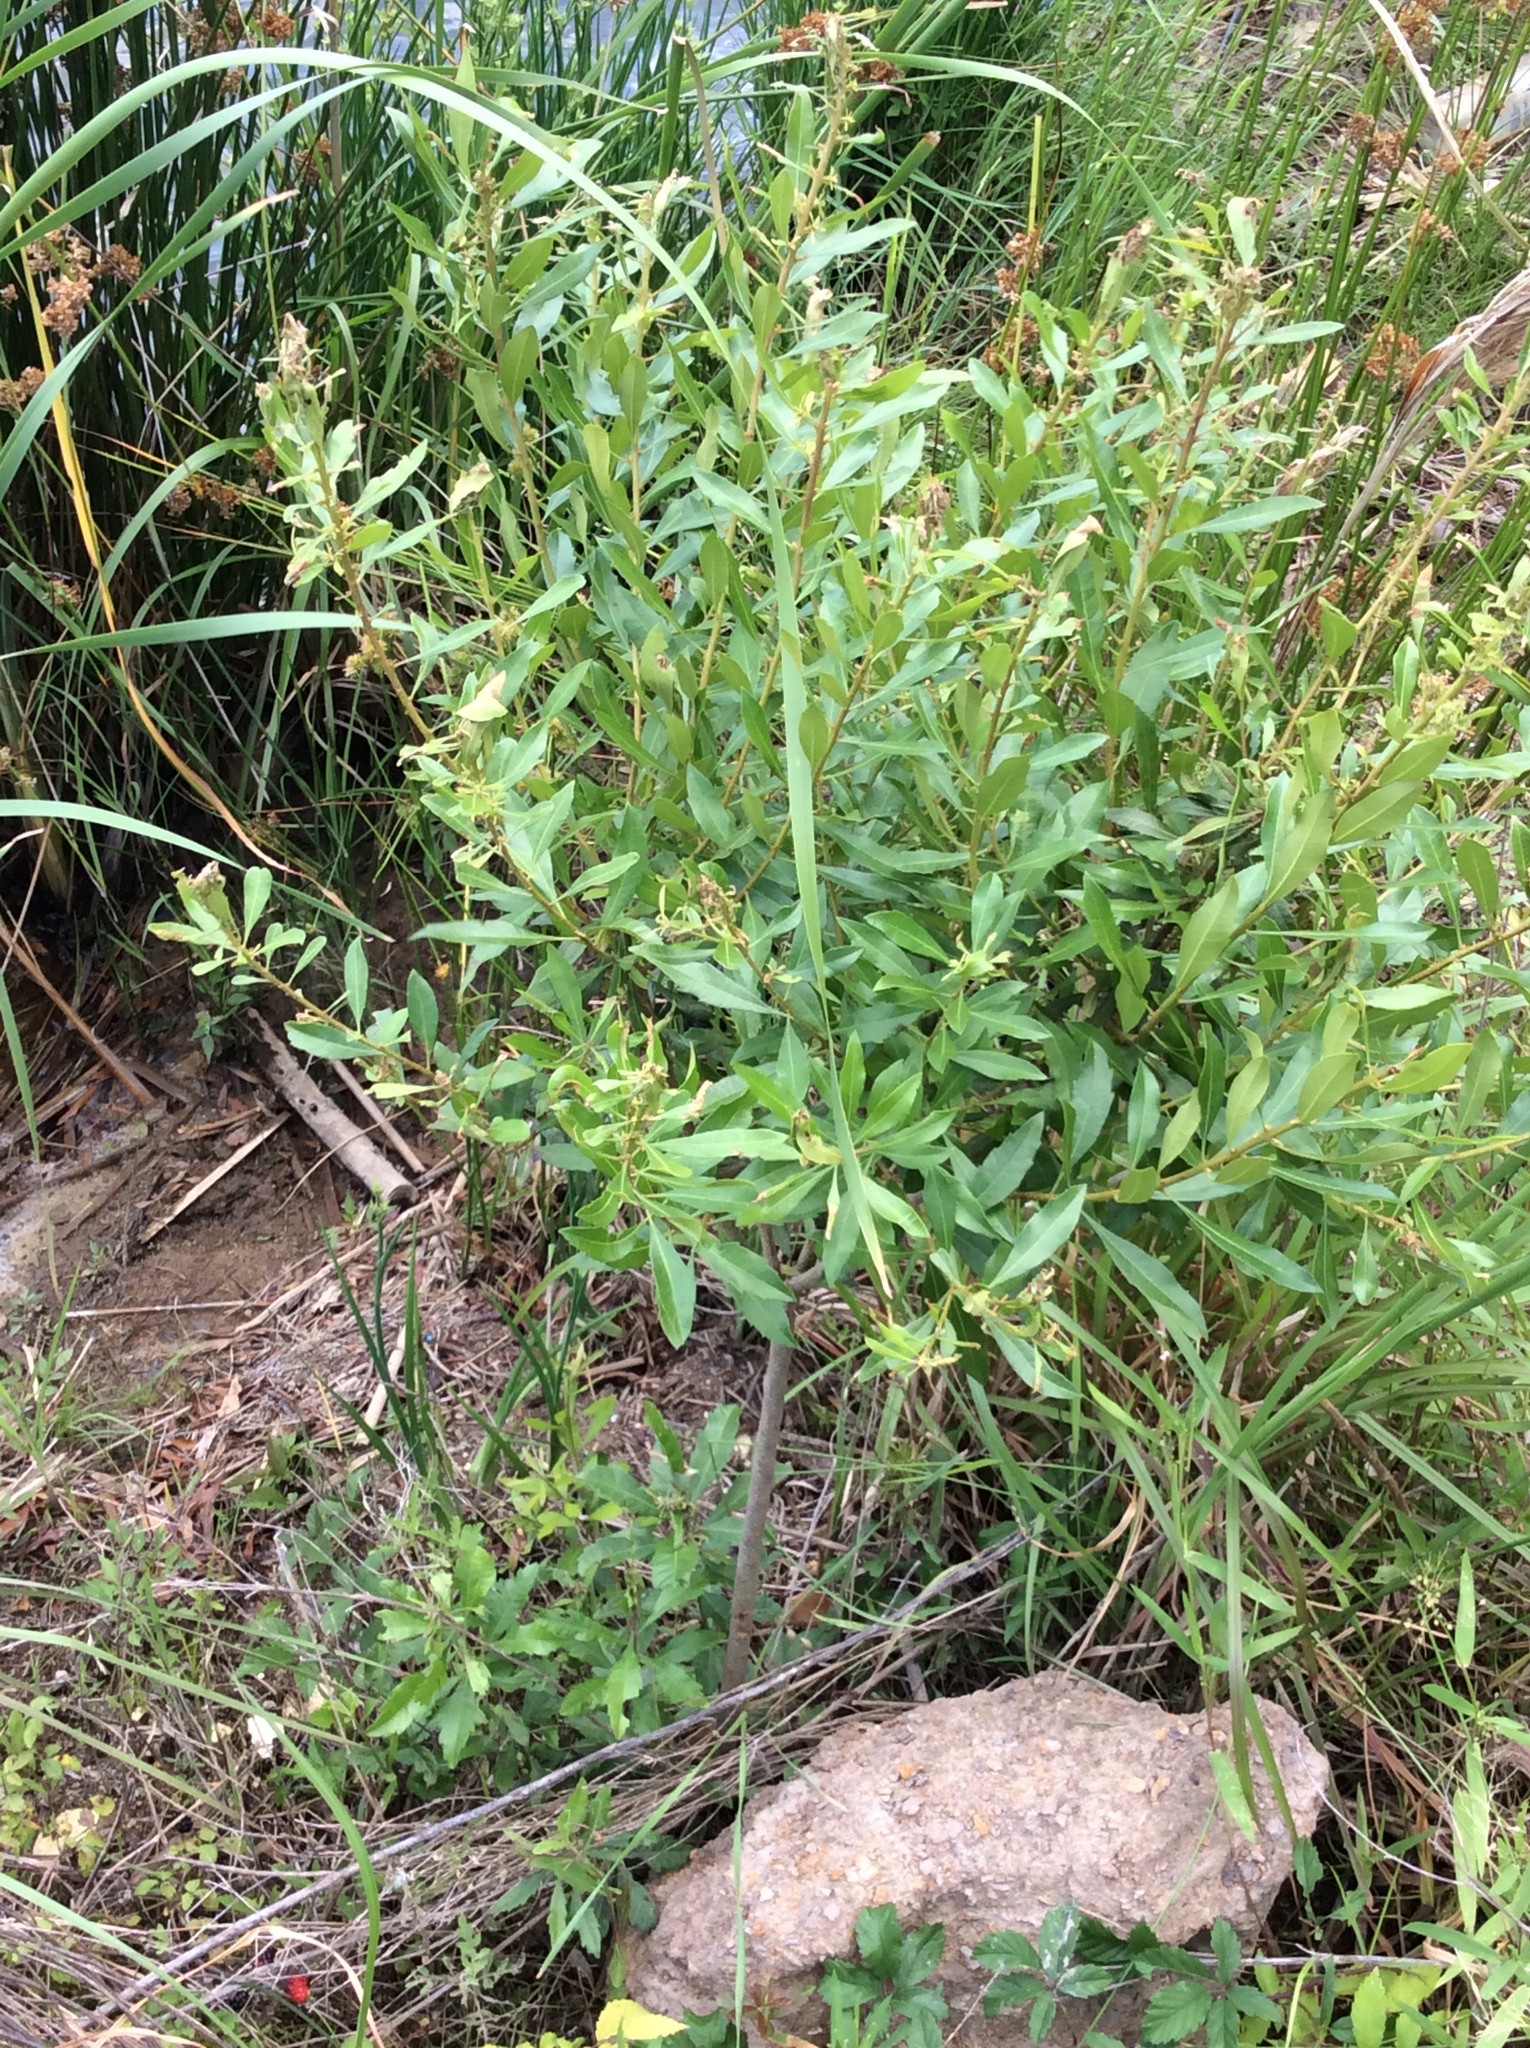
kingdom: Plantae
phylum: Tracheophyta
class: Magnoliopsida
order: Fagales
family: Myricaceae
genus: Morella
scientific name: Morella cerifera
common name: Wax myrtle
